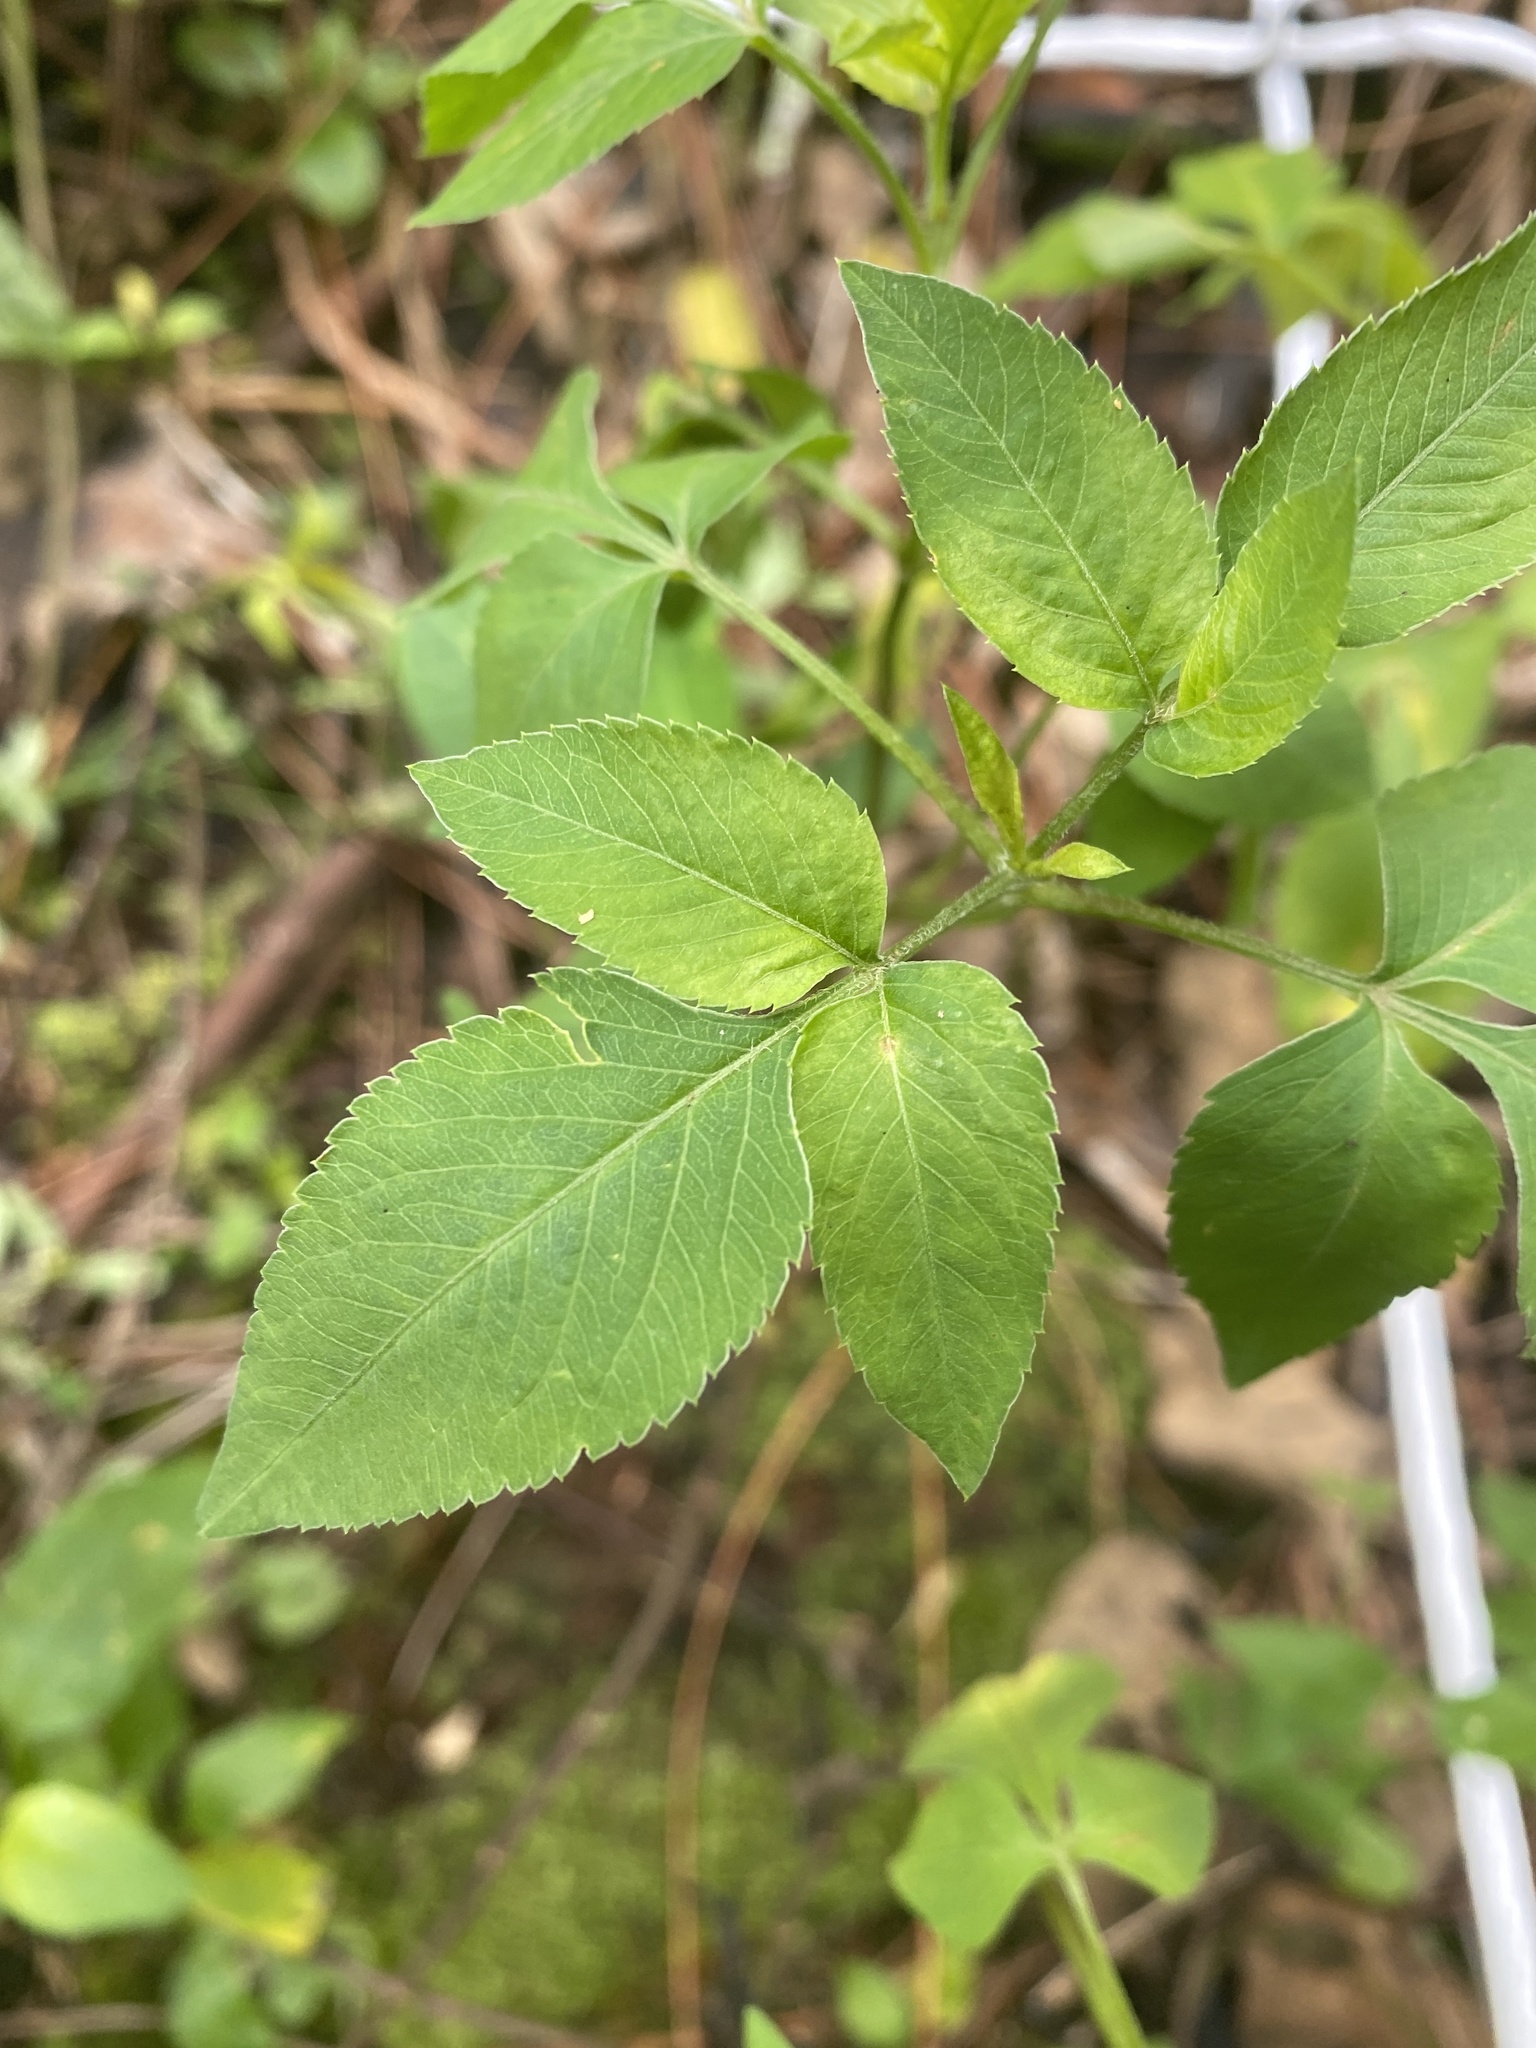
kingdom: Plantae
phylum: Tracheophyta
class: Magnoliopsida
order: Asterales
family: Asteraceae
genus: Bidens
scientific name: Bidens alba
